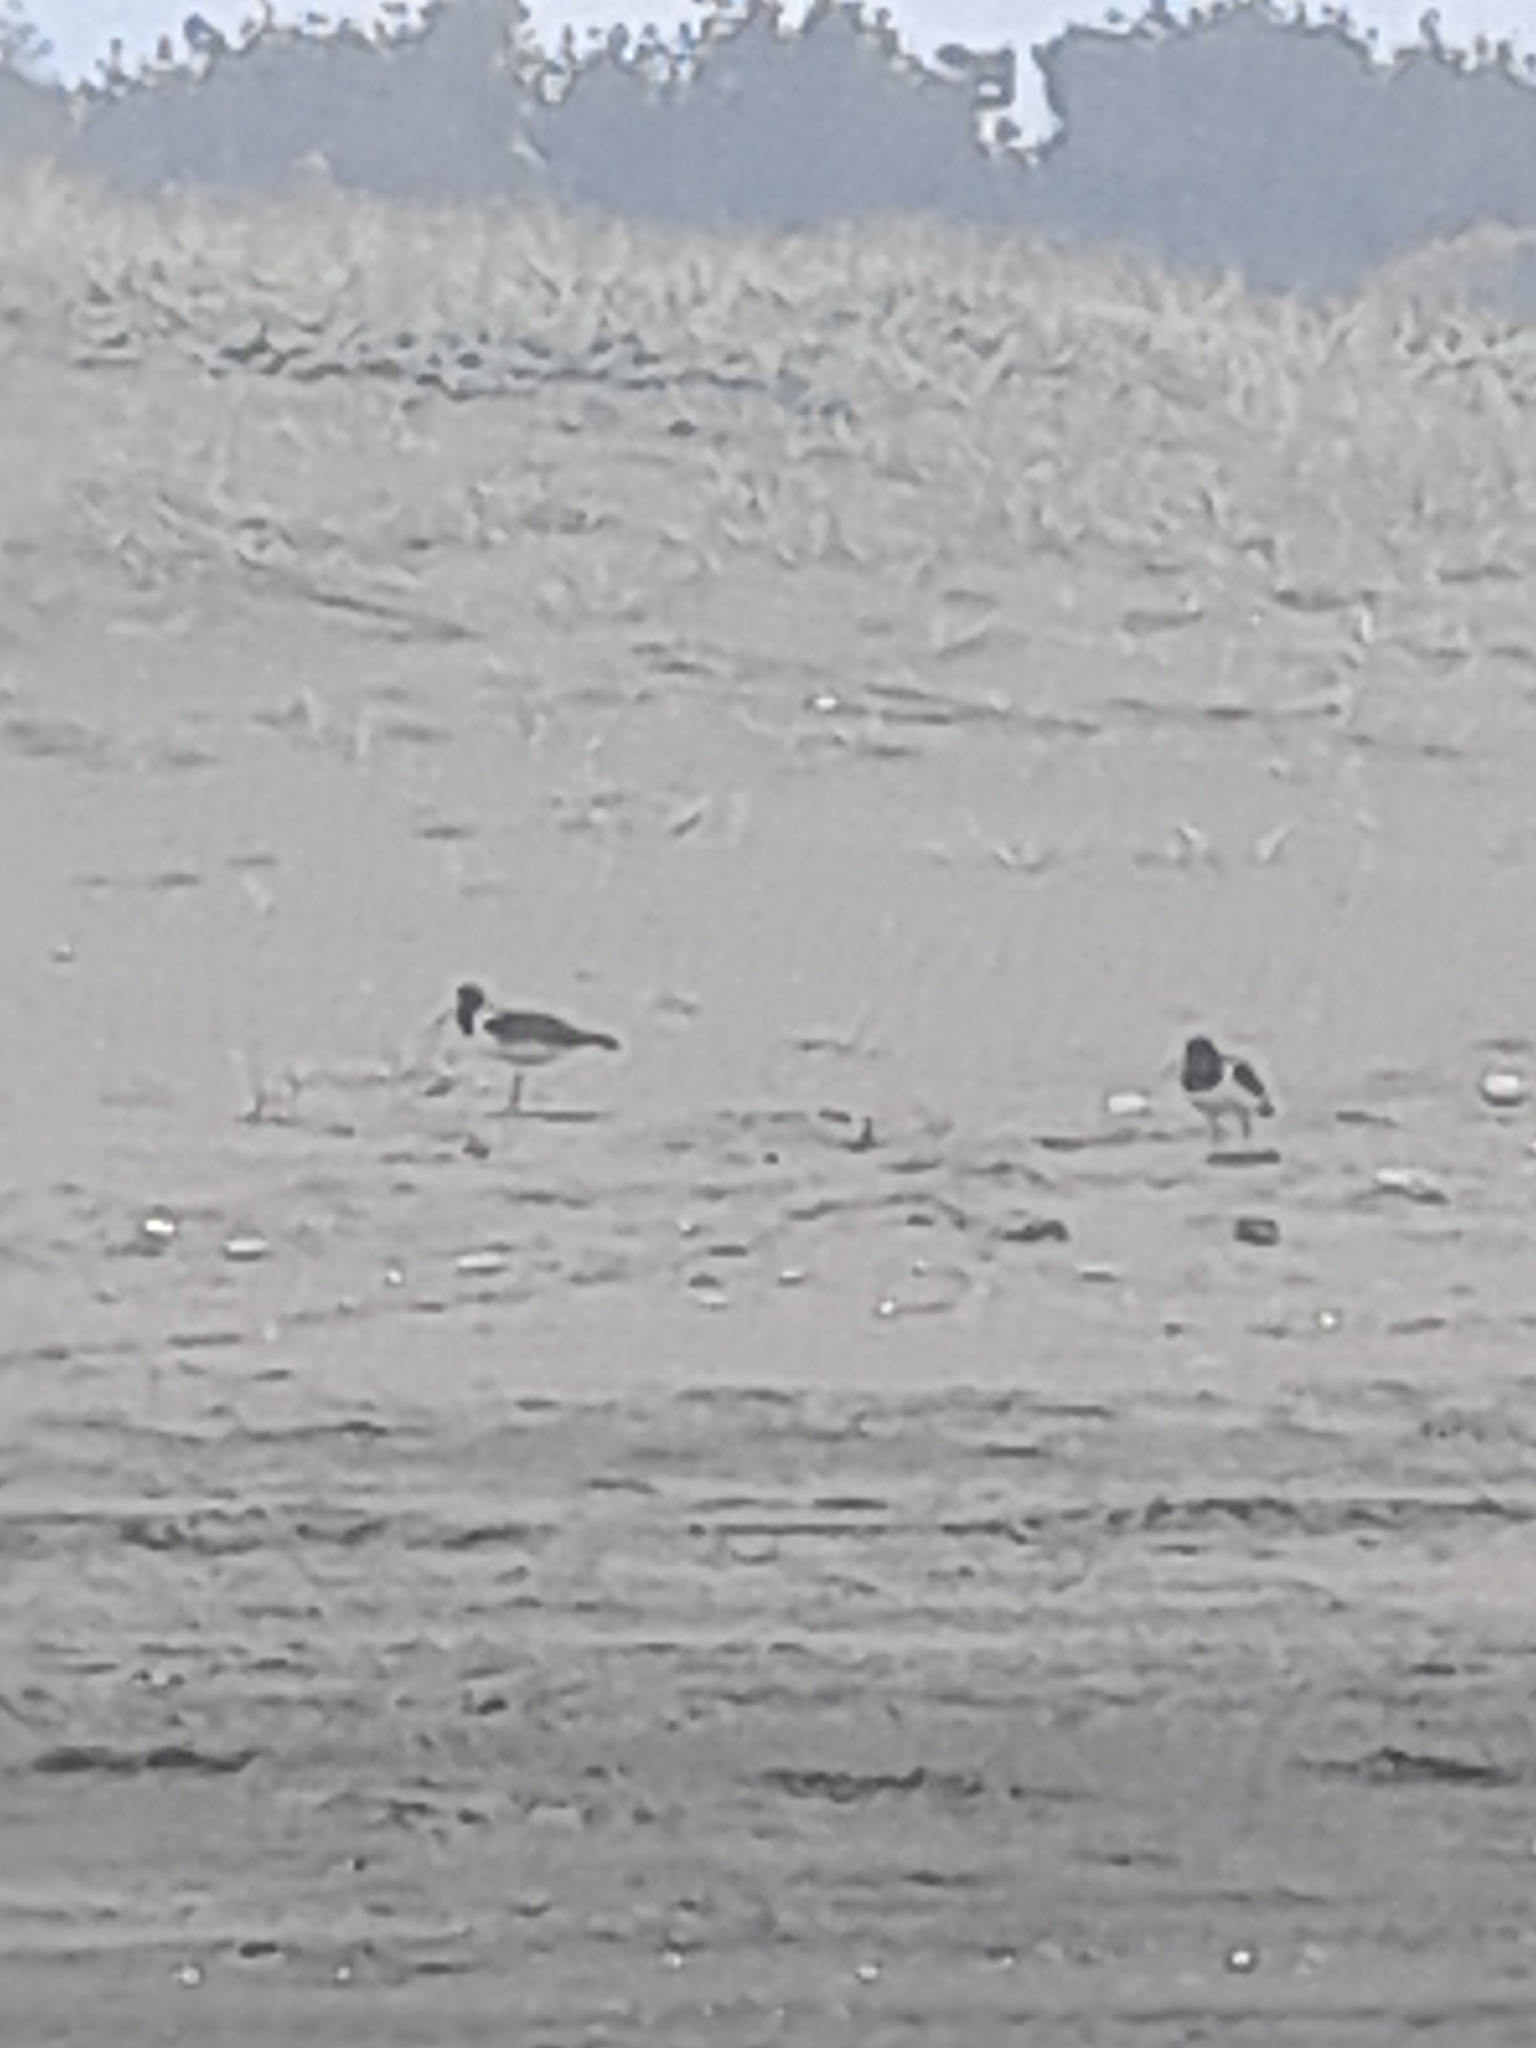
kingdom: Animalia
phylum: Chordata
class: Aves
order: Charadriiformes
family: Haematopodidae
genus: Haematopus
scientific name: Haematopus palliatus
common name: American oystercatcher
